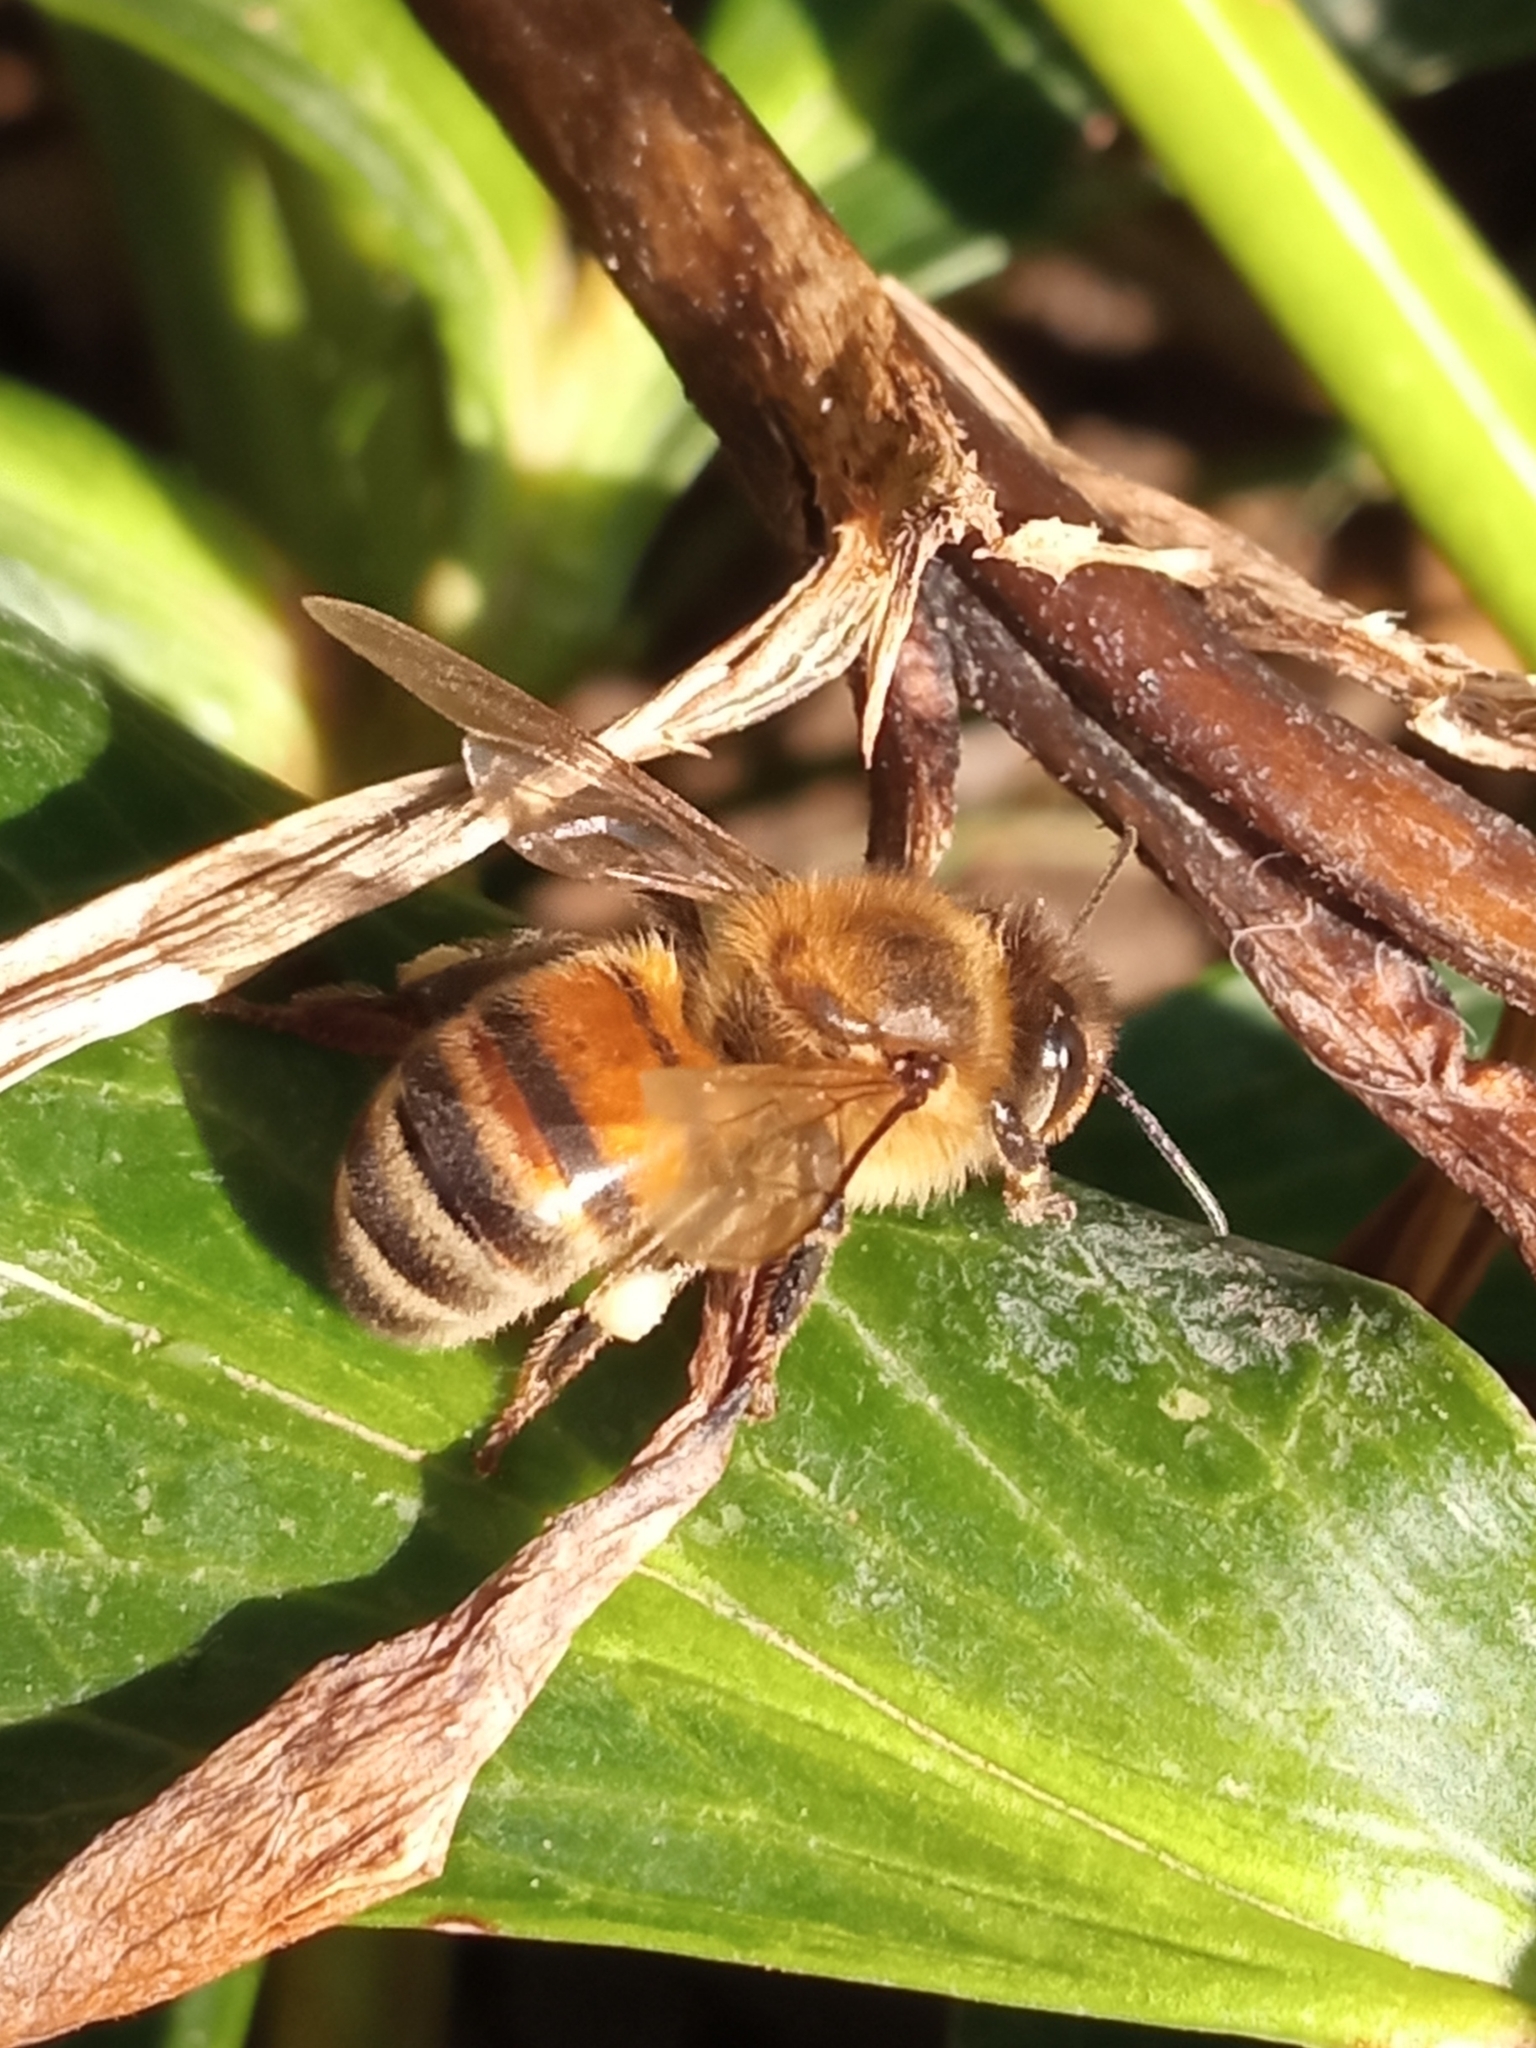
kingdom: Animalia
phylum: Arthropoda
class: Insecta
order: Hymenoptera
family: Apidae
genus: Apis
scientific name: Apis mellifera
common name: Honey bee
